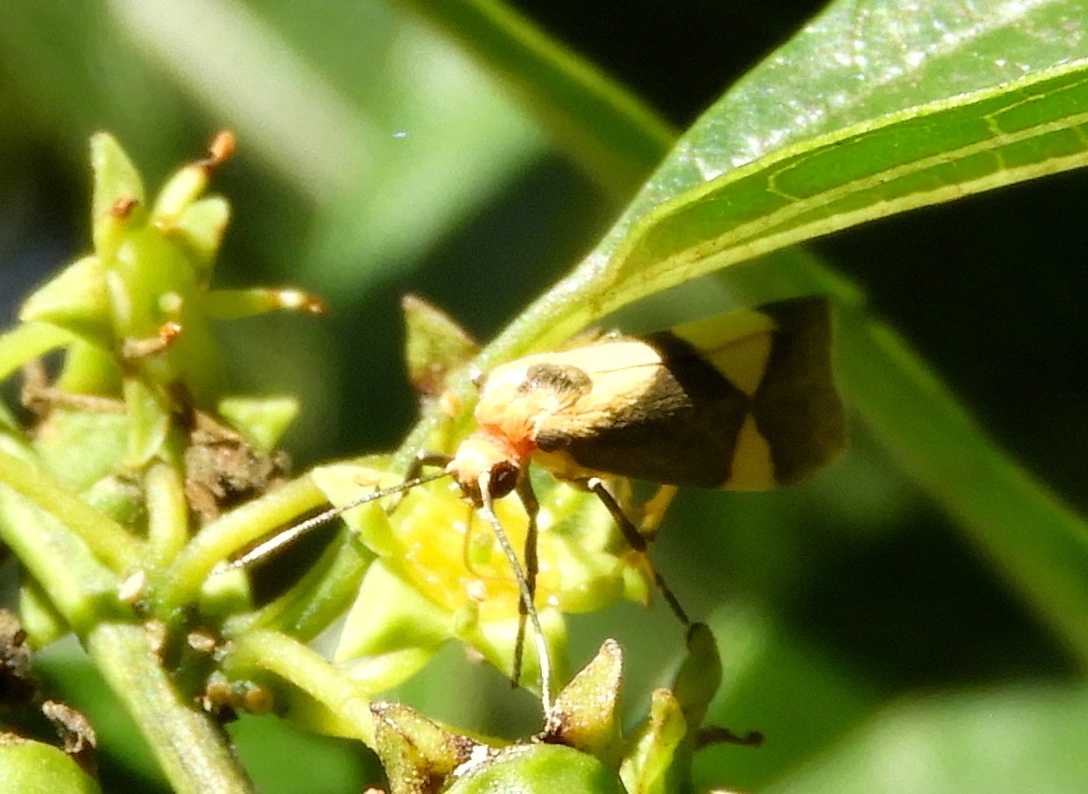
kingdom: Animalia
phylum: Arthropoda
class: Insecta
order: Lepidoptera
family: Erebidae
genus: Cisthene
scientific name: Cisthene
